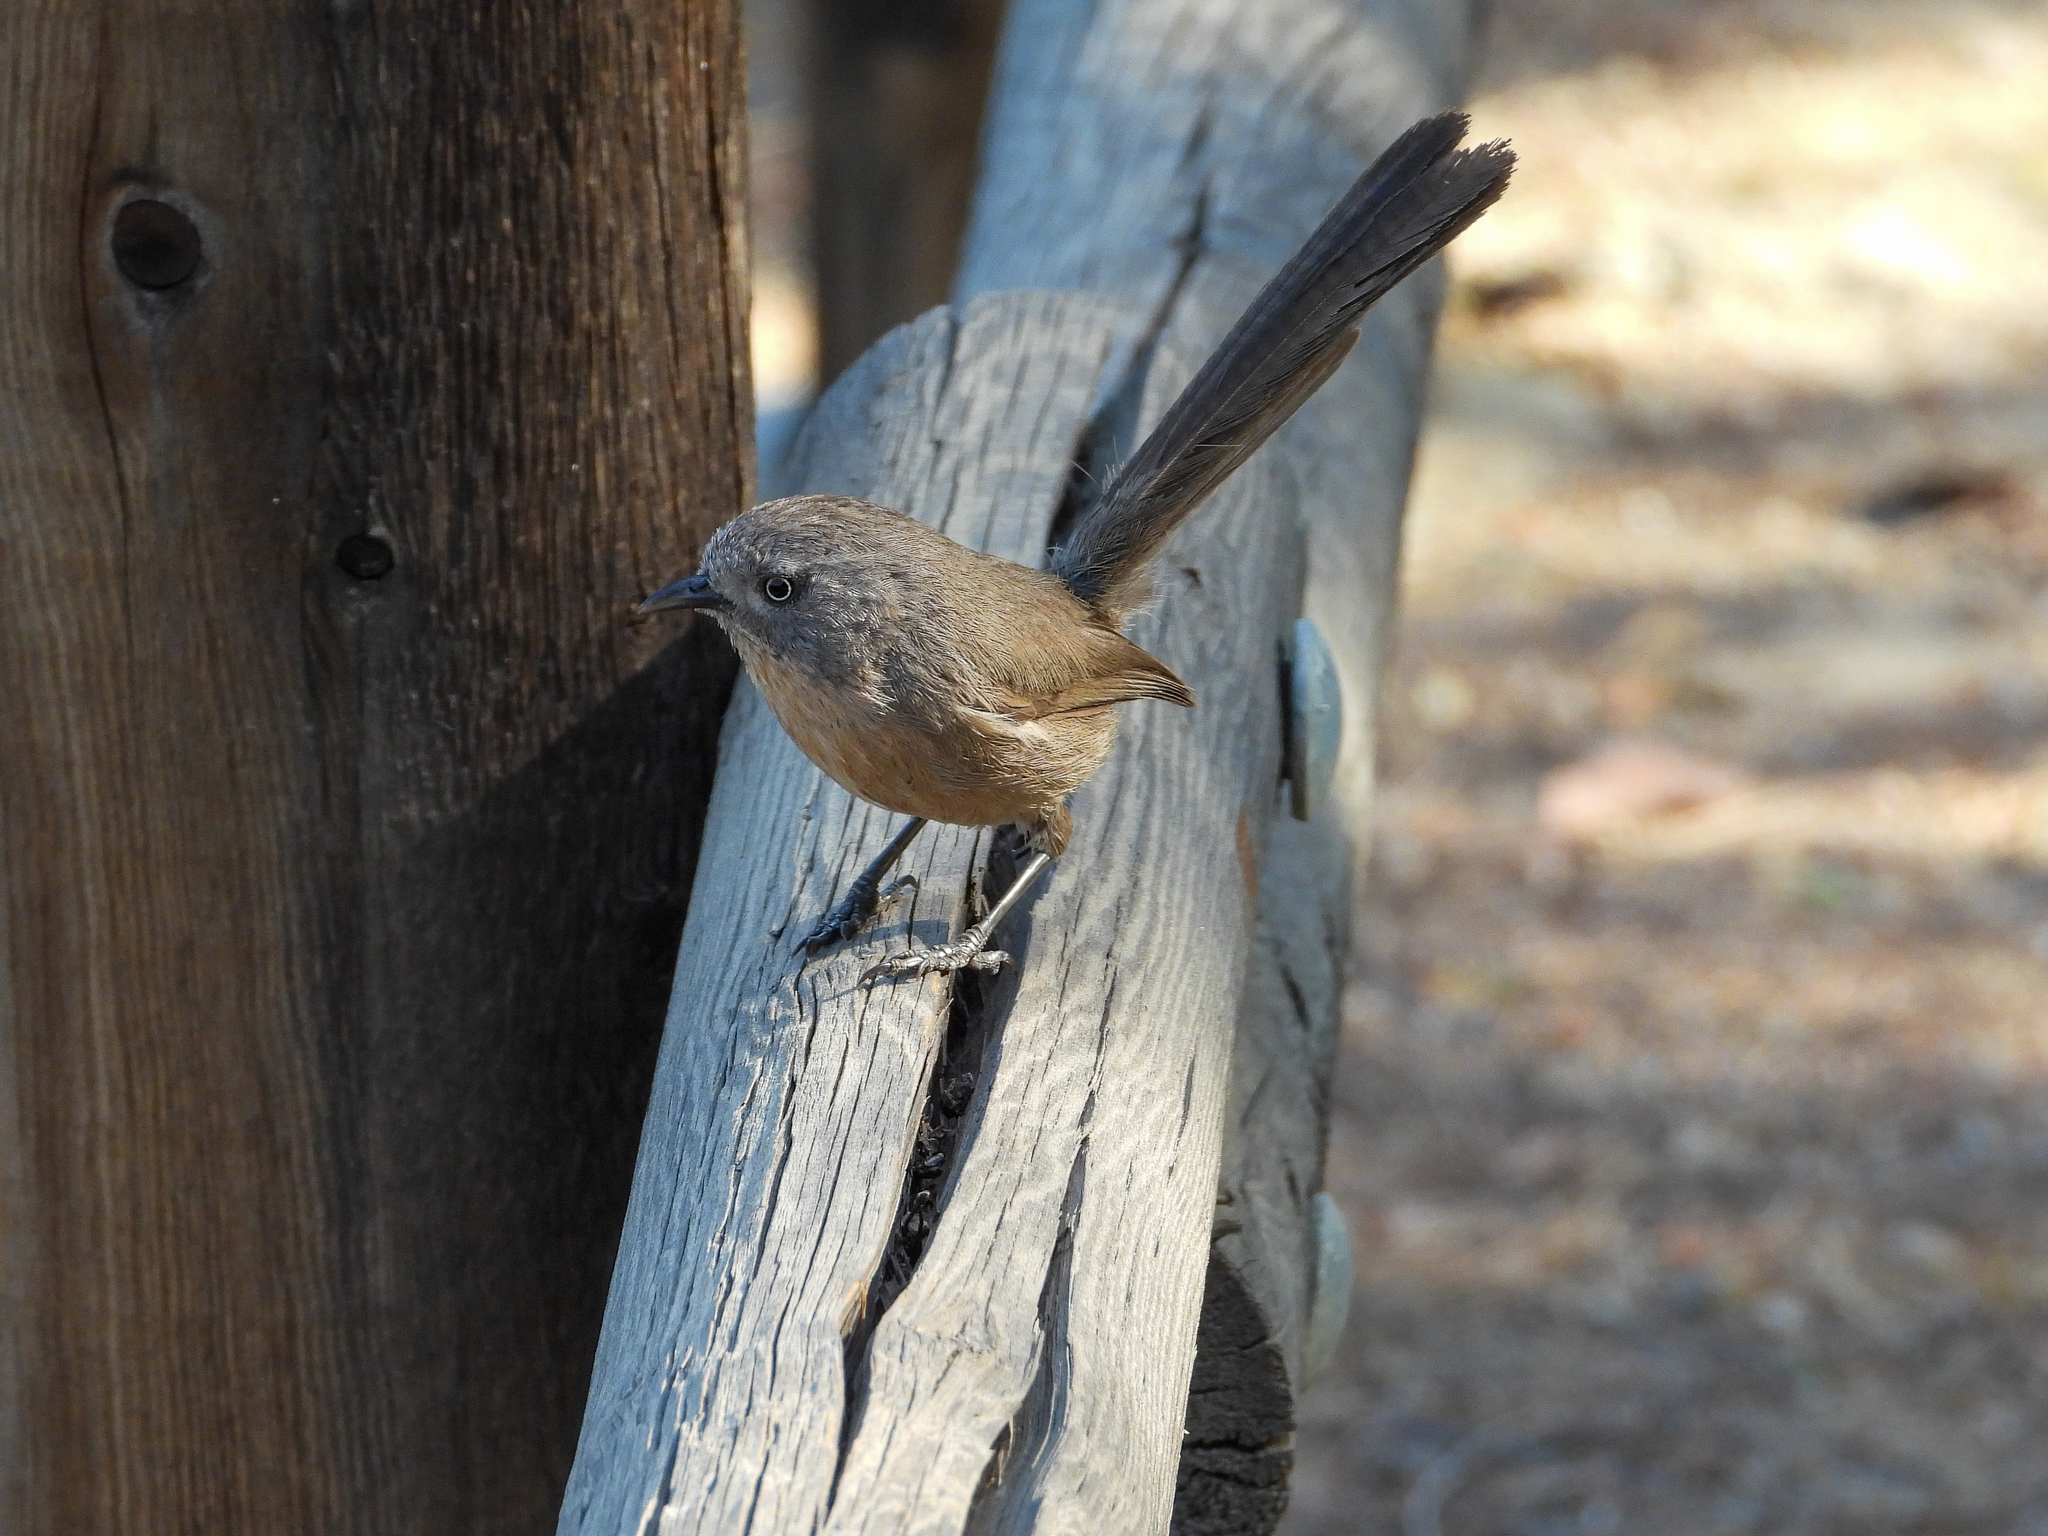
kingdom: Animalia
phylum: Chordata
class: Aves
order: Passeriformes
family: Sylviidae
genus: Chamaea
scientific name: Chamaea fasciata
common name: Wrentit
